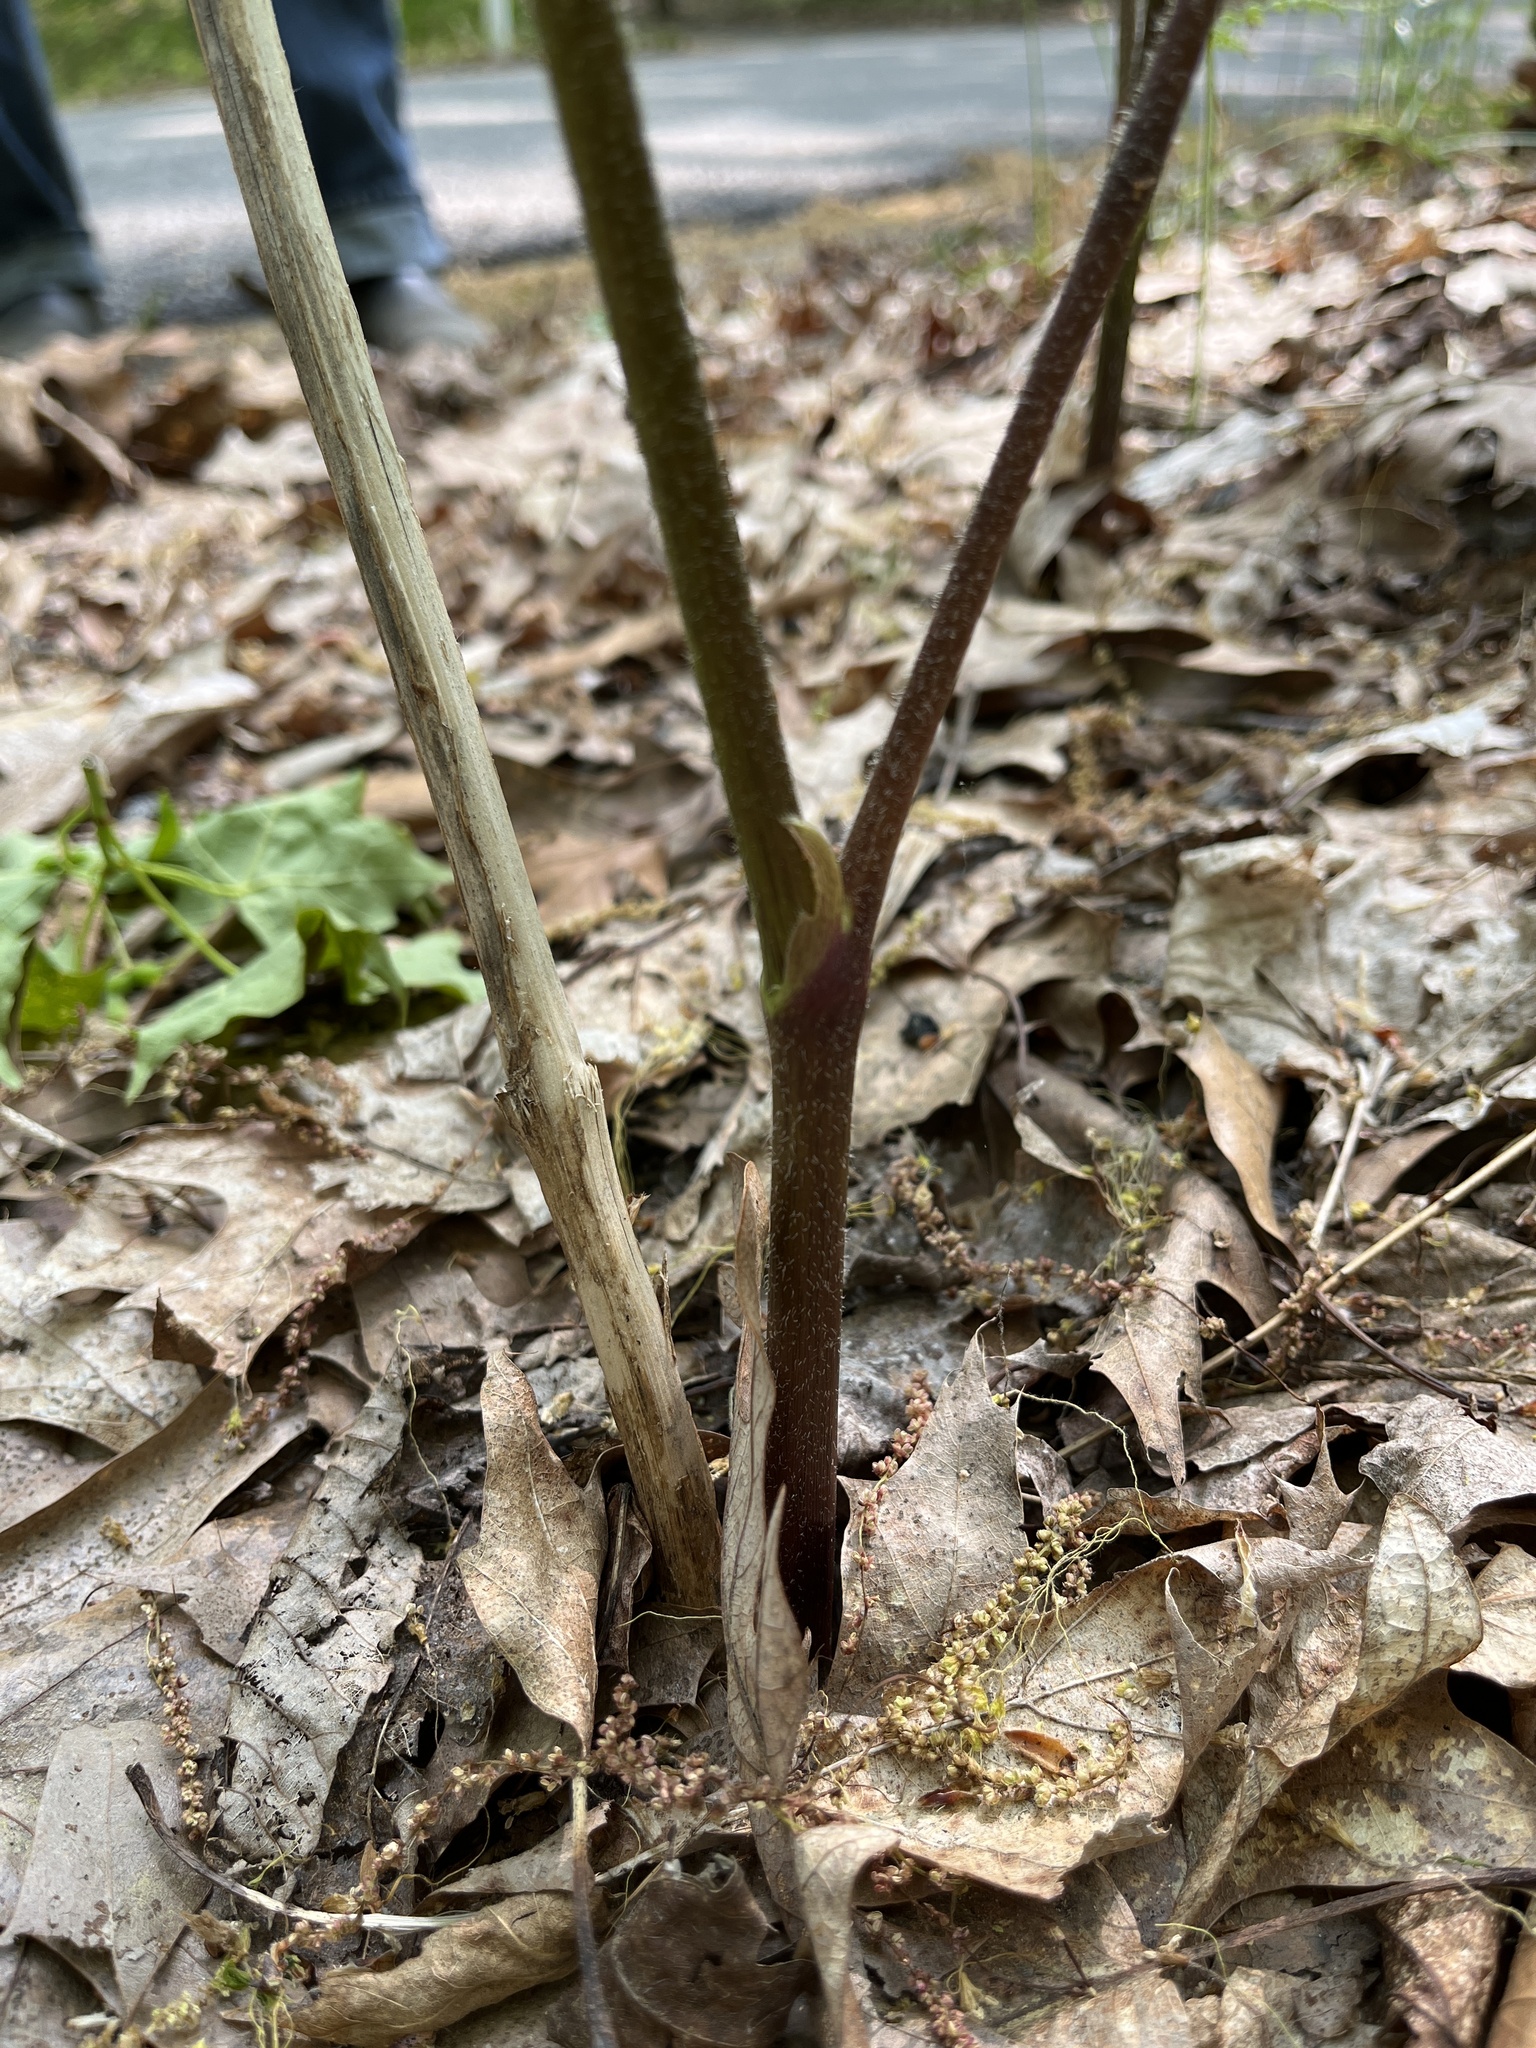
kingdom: Plantae
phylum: Tracheophyta
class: Magnoliopsida
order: Apiales
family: Araliaceae
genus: Aralia
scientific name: Aralia racemosa
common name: American-spikenard
